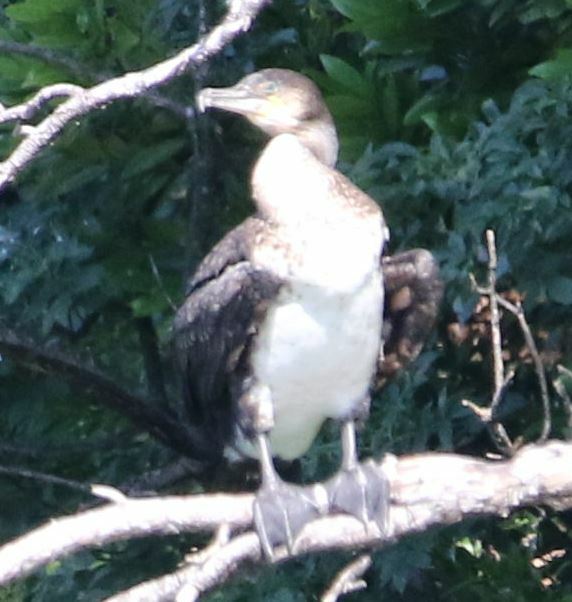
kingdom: Animalia
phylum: Chordata
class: Aves
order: Suliformes
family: Phalacrocoracidae
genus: Phalacrocorax
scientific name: Phalacrocorax carbo
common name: Great cormorant
